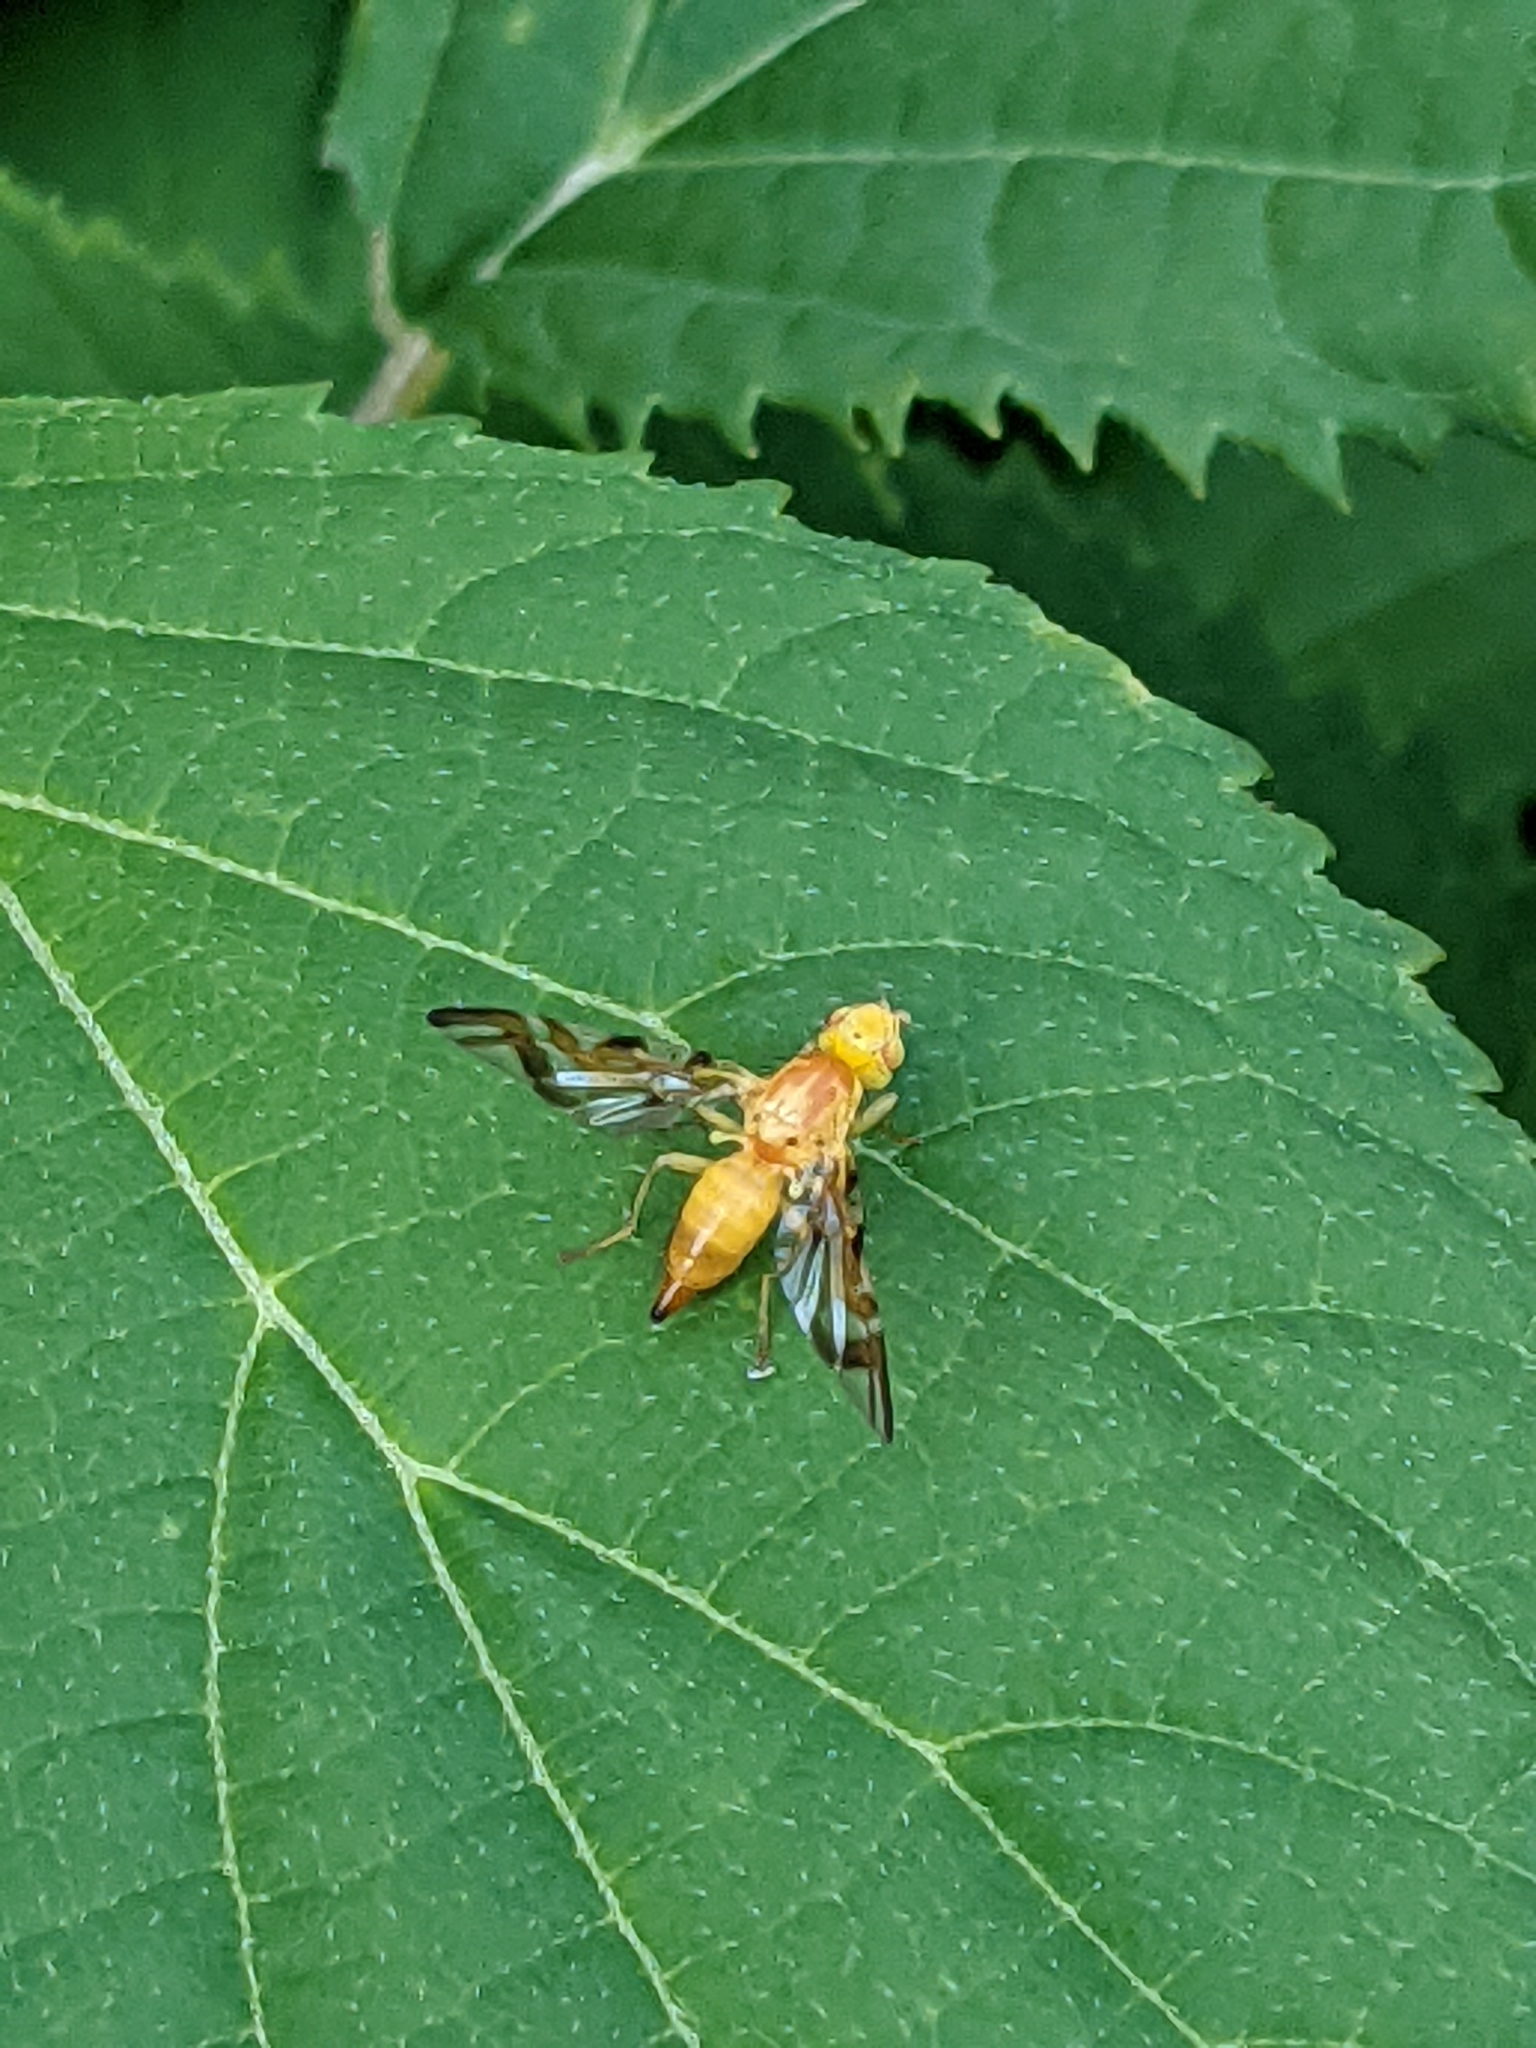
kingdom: Animalia
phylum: Arthropoda
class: Insecta
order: Diptera
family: Tephritidae
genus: Strauzia
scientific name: Strauzia longipennis
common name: Sunflower maggot
